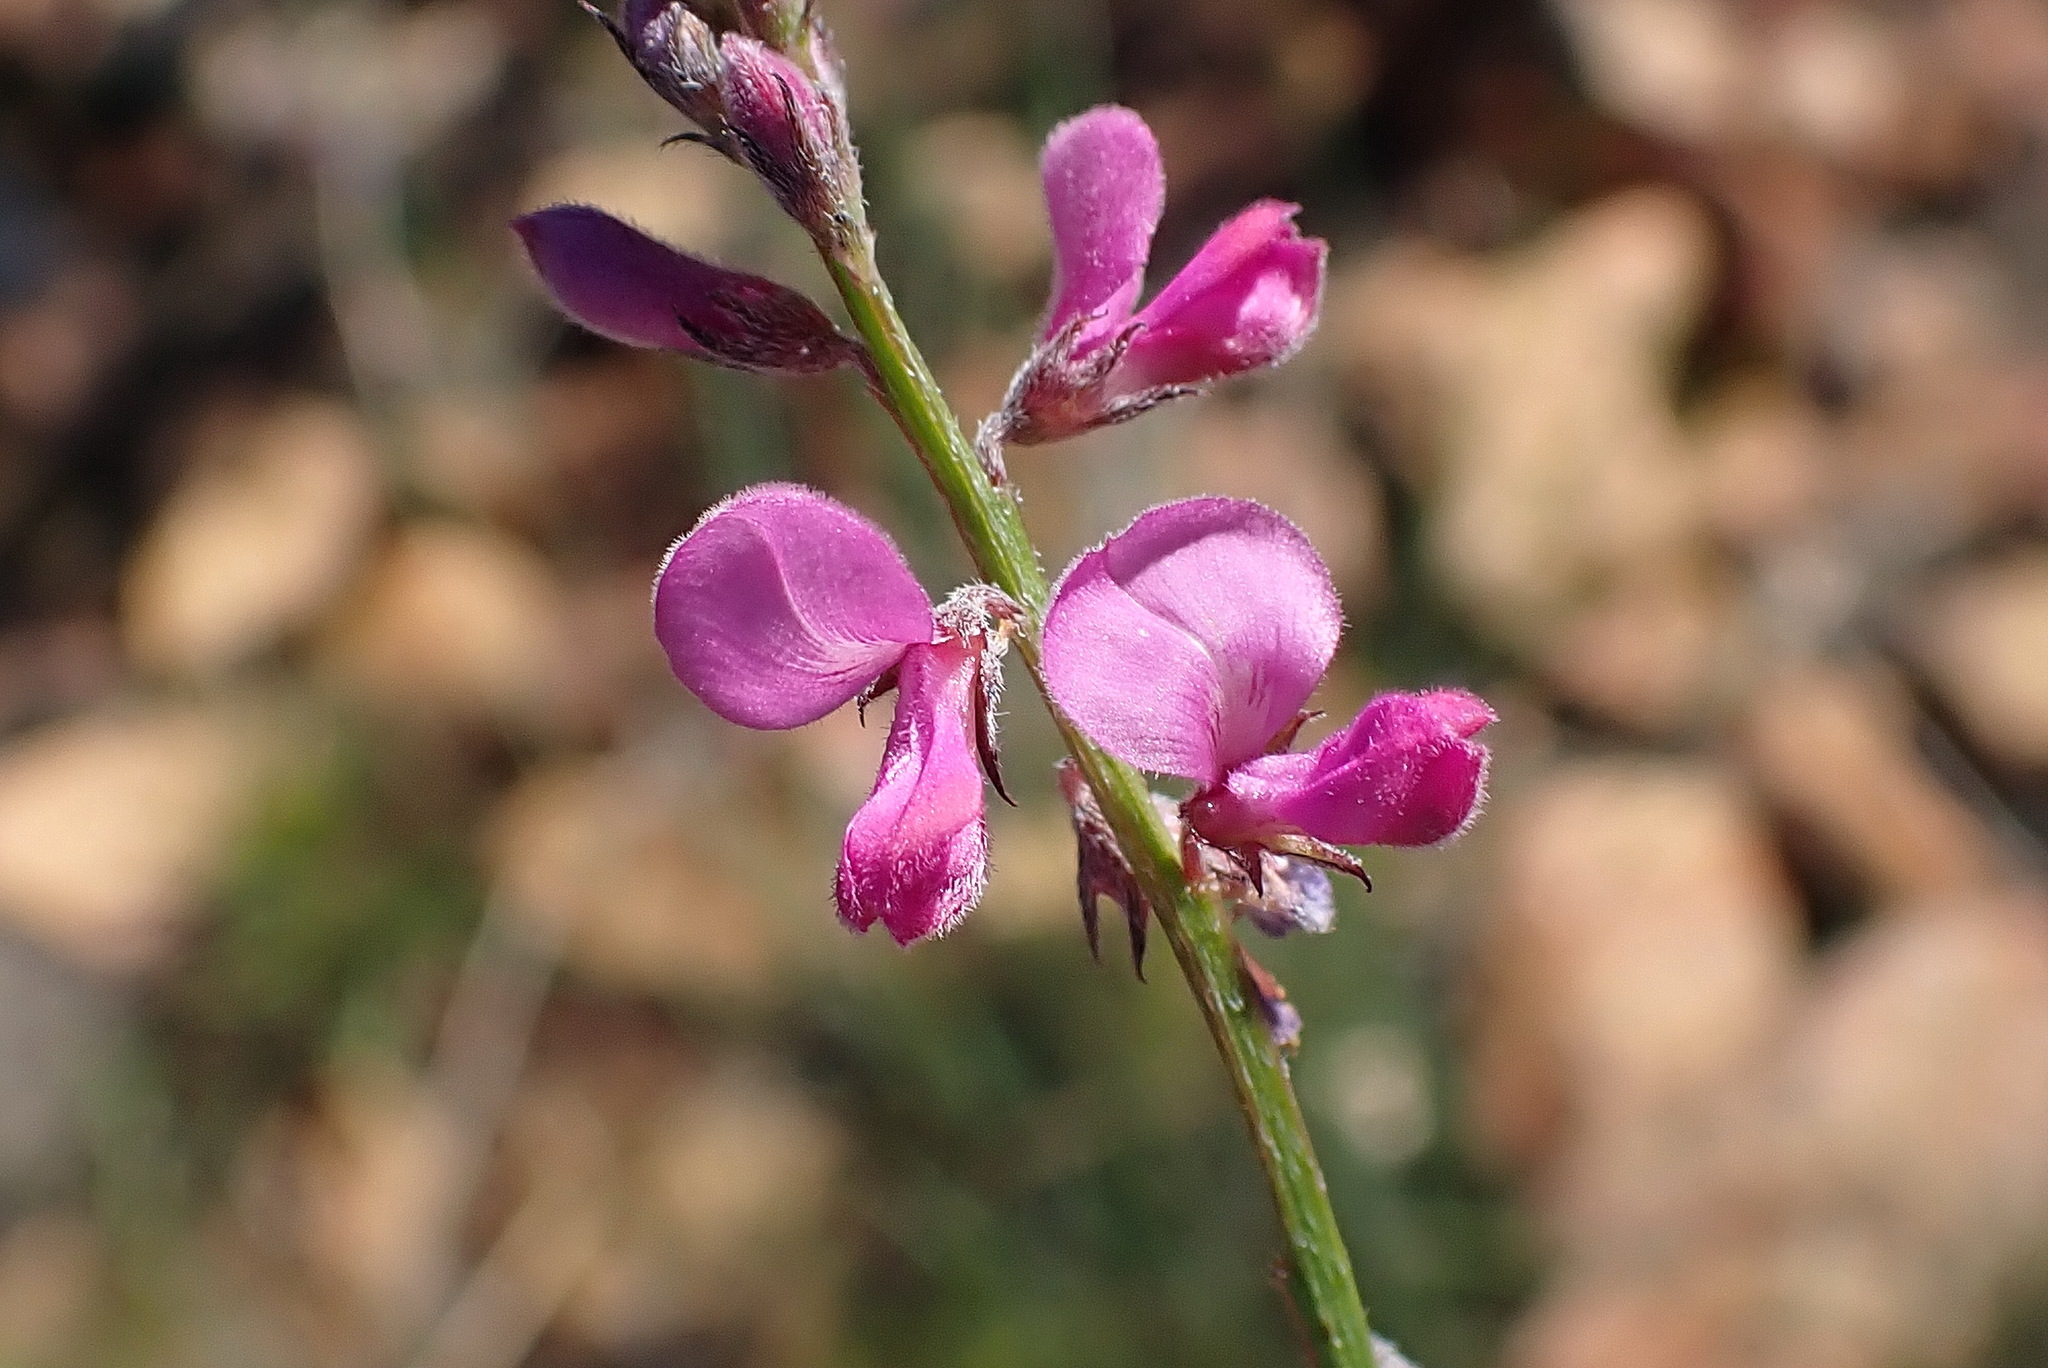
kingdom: Plantae
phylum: Tracheophyta
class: Magnoliopsida
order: Fabales
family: Fabaceae
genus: Indigofera
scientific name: Indigofera declinata
